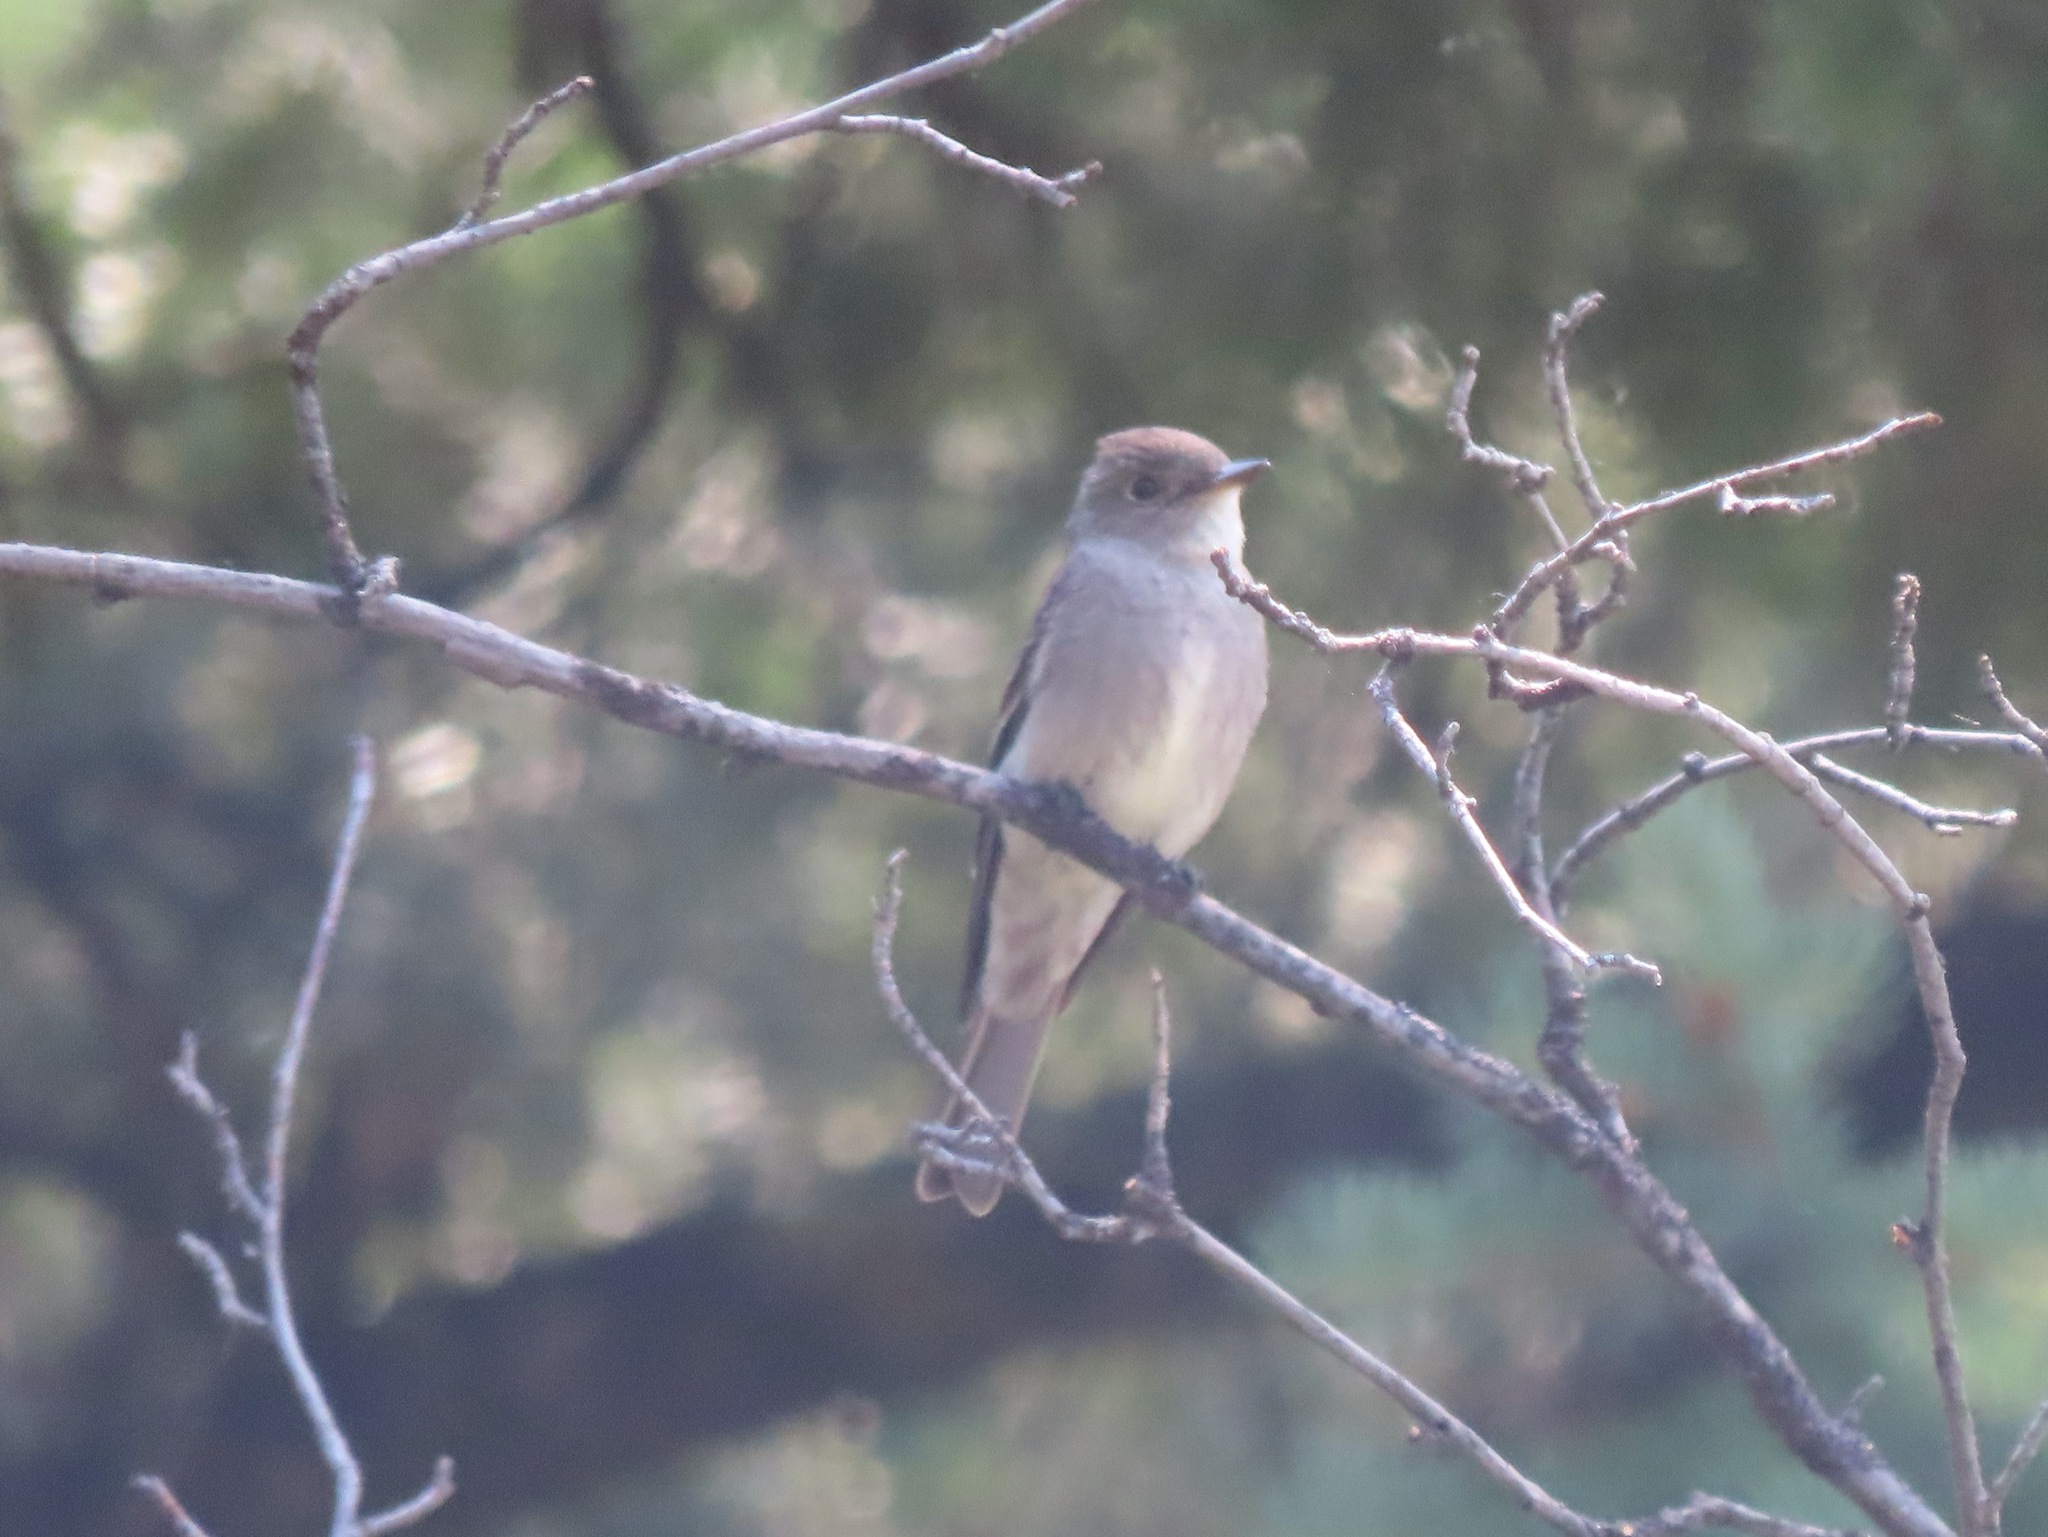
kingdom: Animalia
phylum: Chordata
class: Aves
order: Passeriformes
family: Tyrannidae
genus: Contopus
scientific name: Contopus sordidulus
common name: Western wood-pewee
